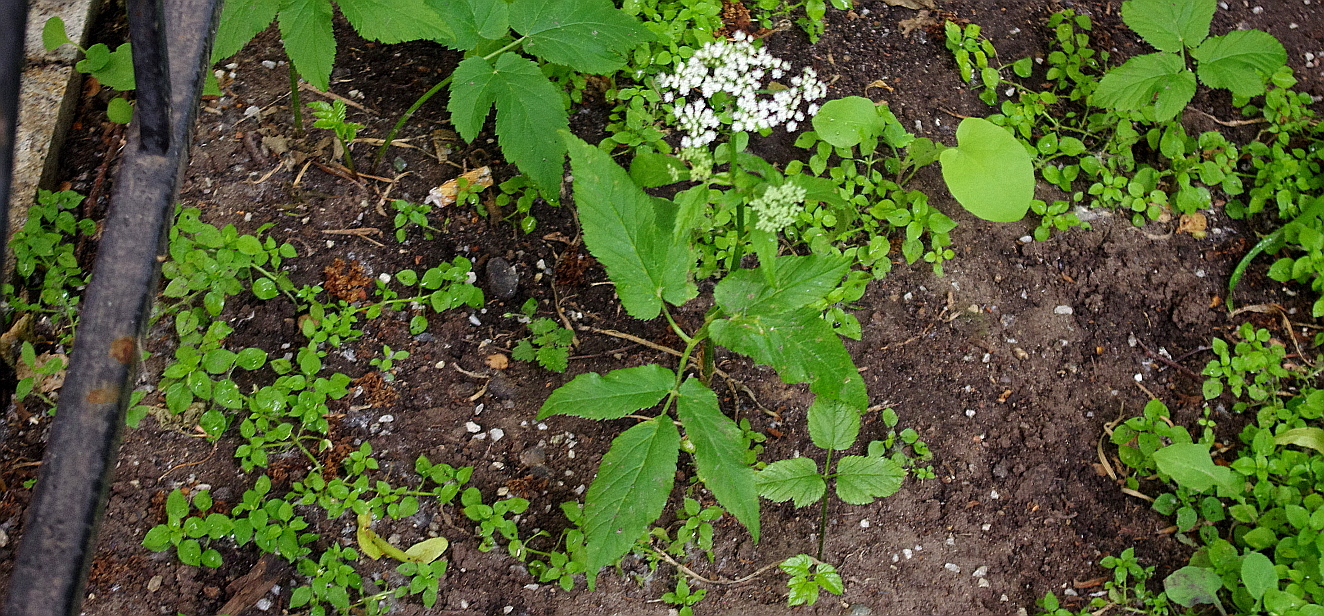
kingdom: Plantae
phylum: Tracheophyta
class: Magnoliopsida
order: Apiales
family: Apiaceae
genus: Aegopodium
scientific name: Aegopodium podagraria
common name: Ground-elder
